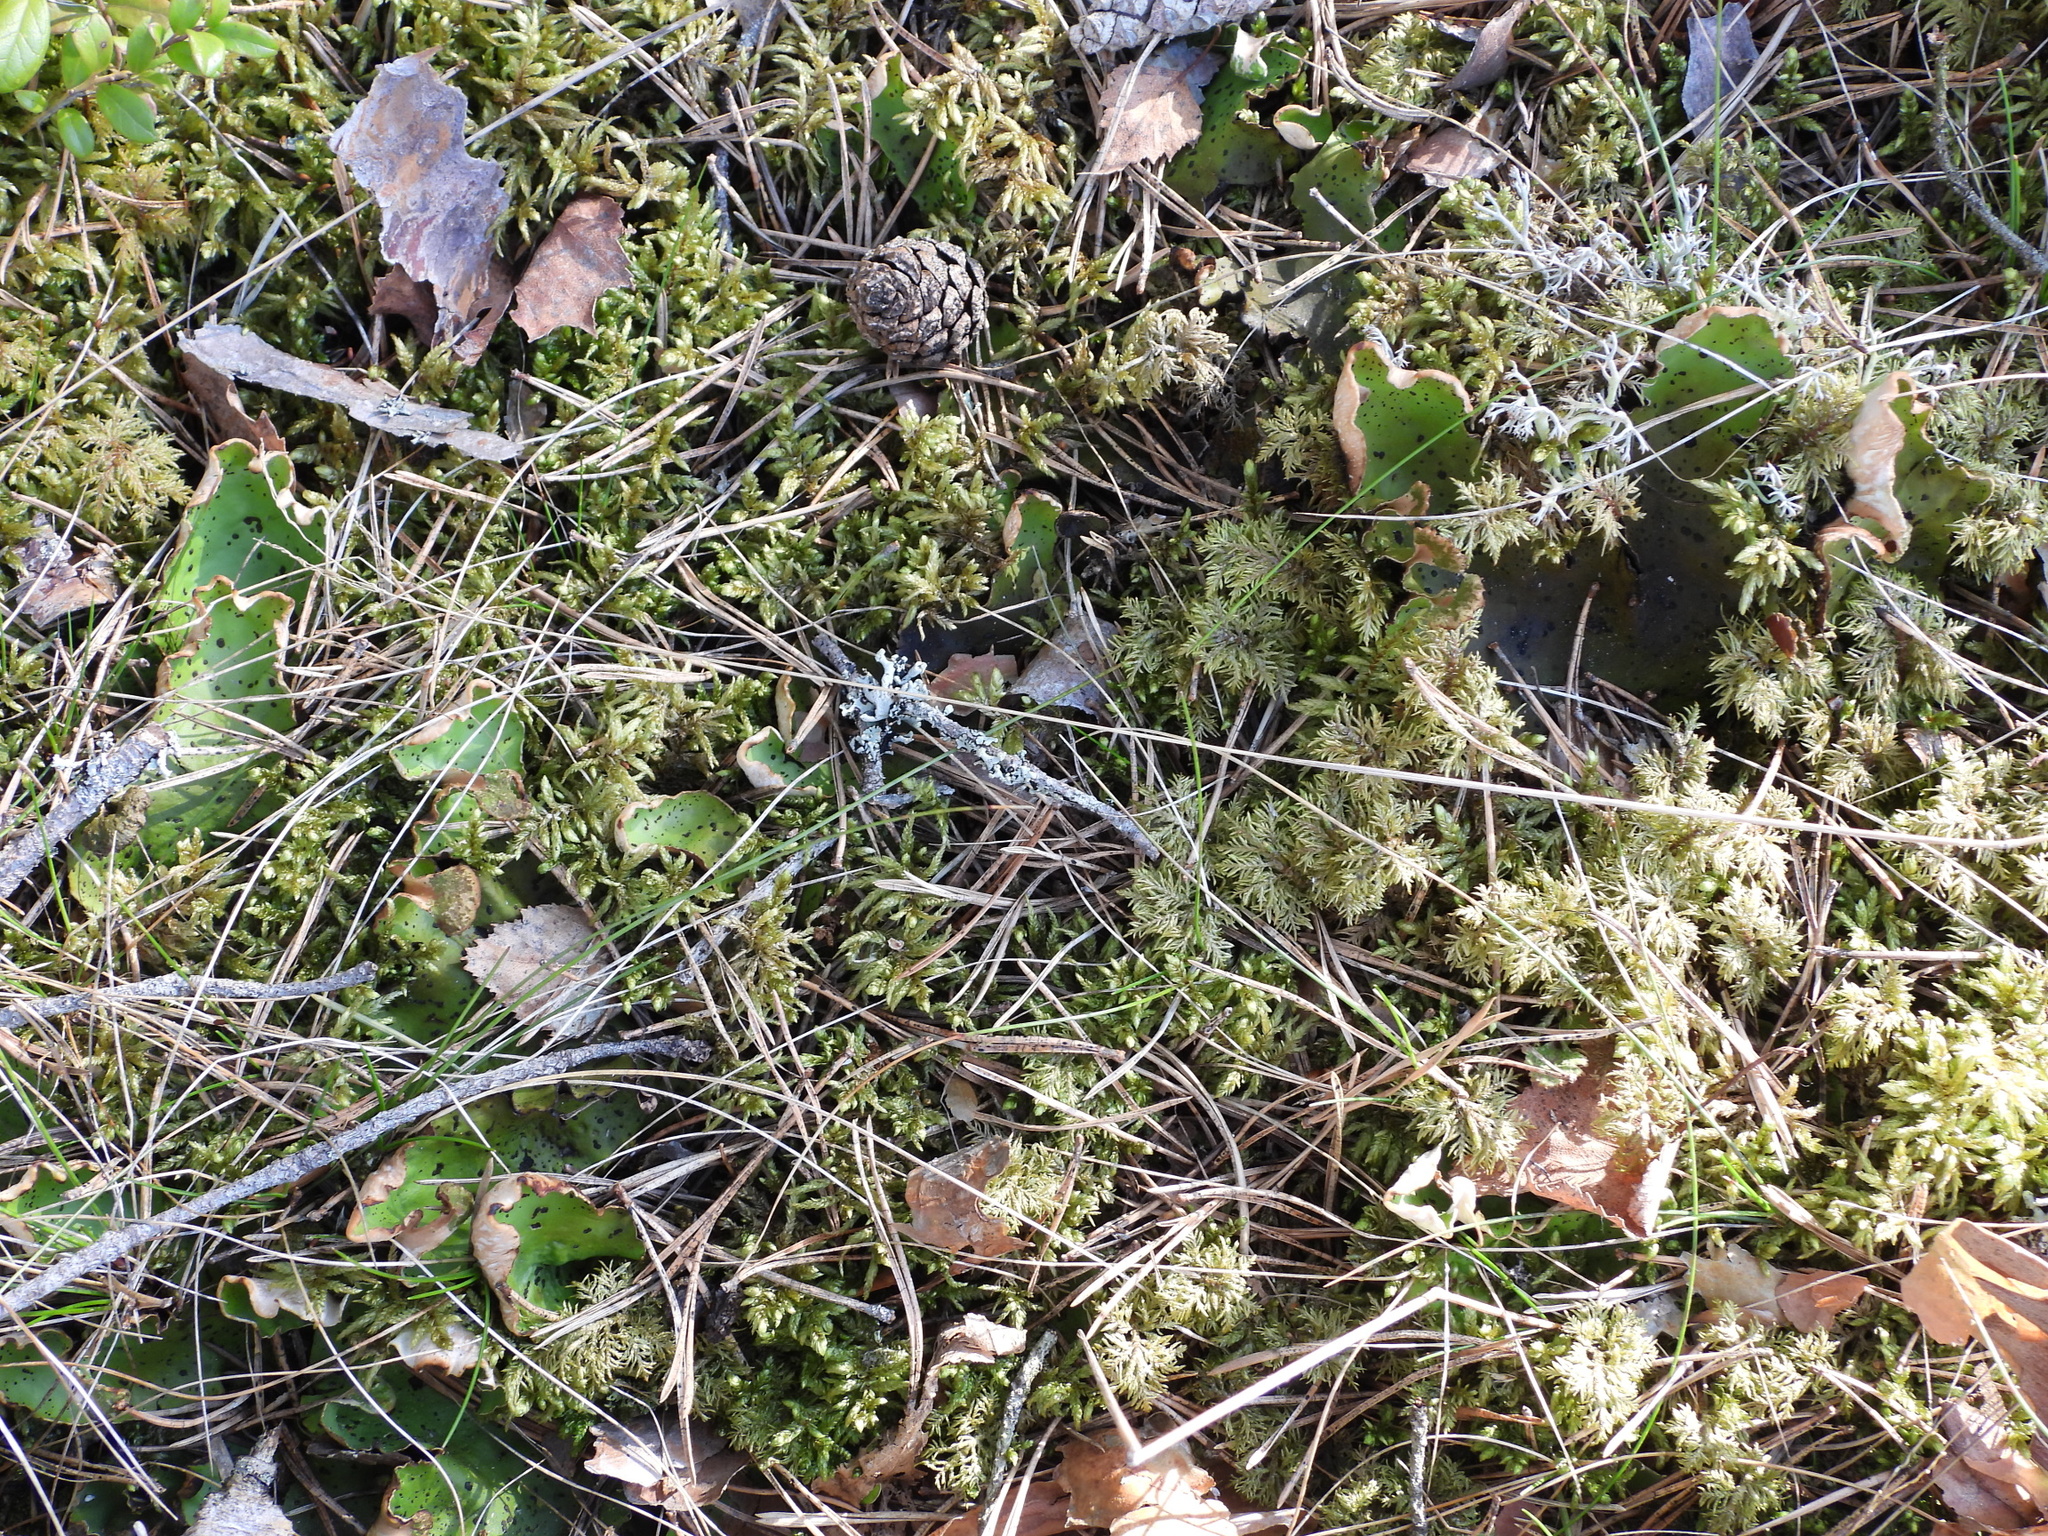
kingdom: Fungi
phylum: Ascomycota
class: Lecanoromycetes
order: Peltigerales
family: Peltigeraceae
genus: Peltigera
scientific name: Peltigera aphthosa
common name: Common freckle pelt lichen
